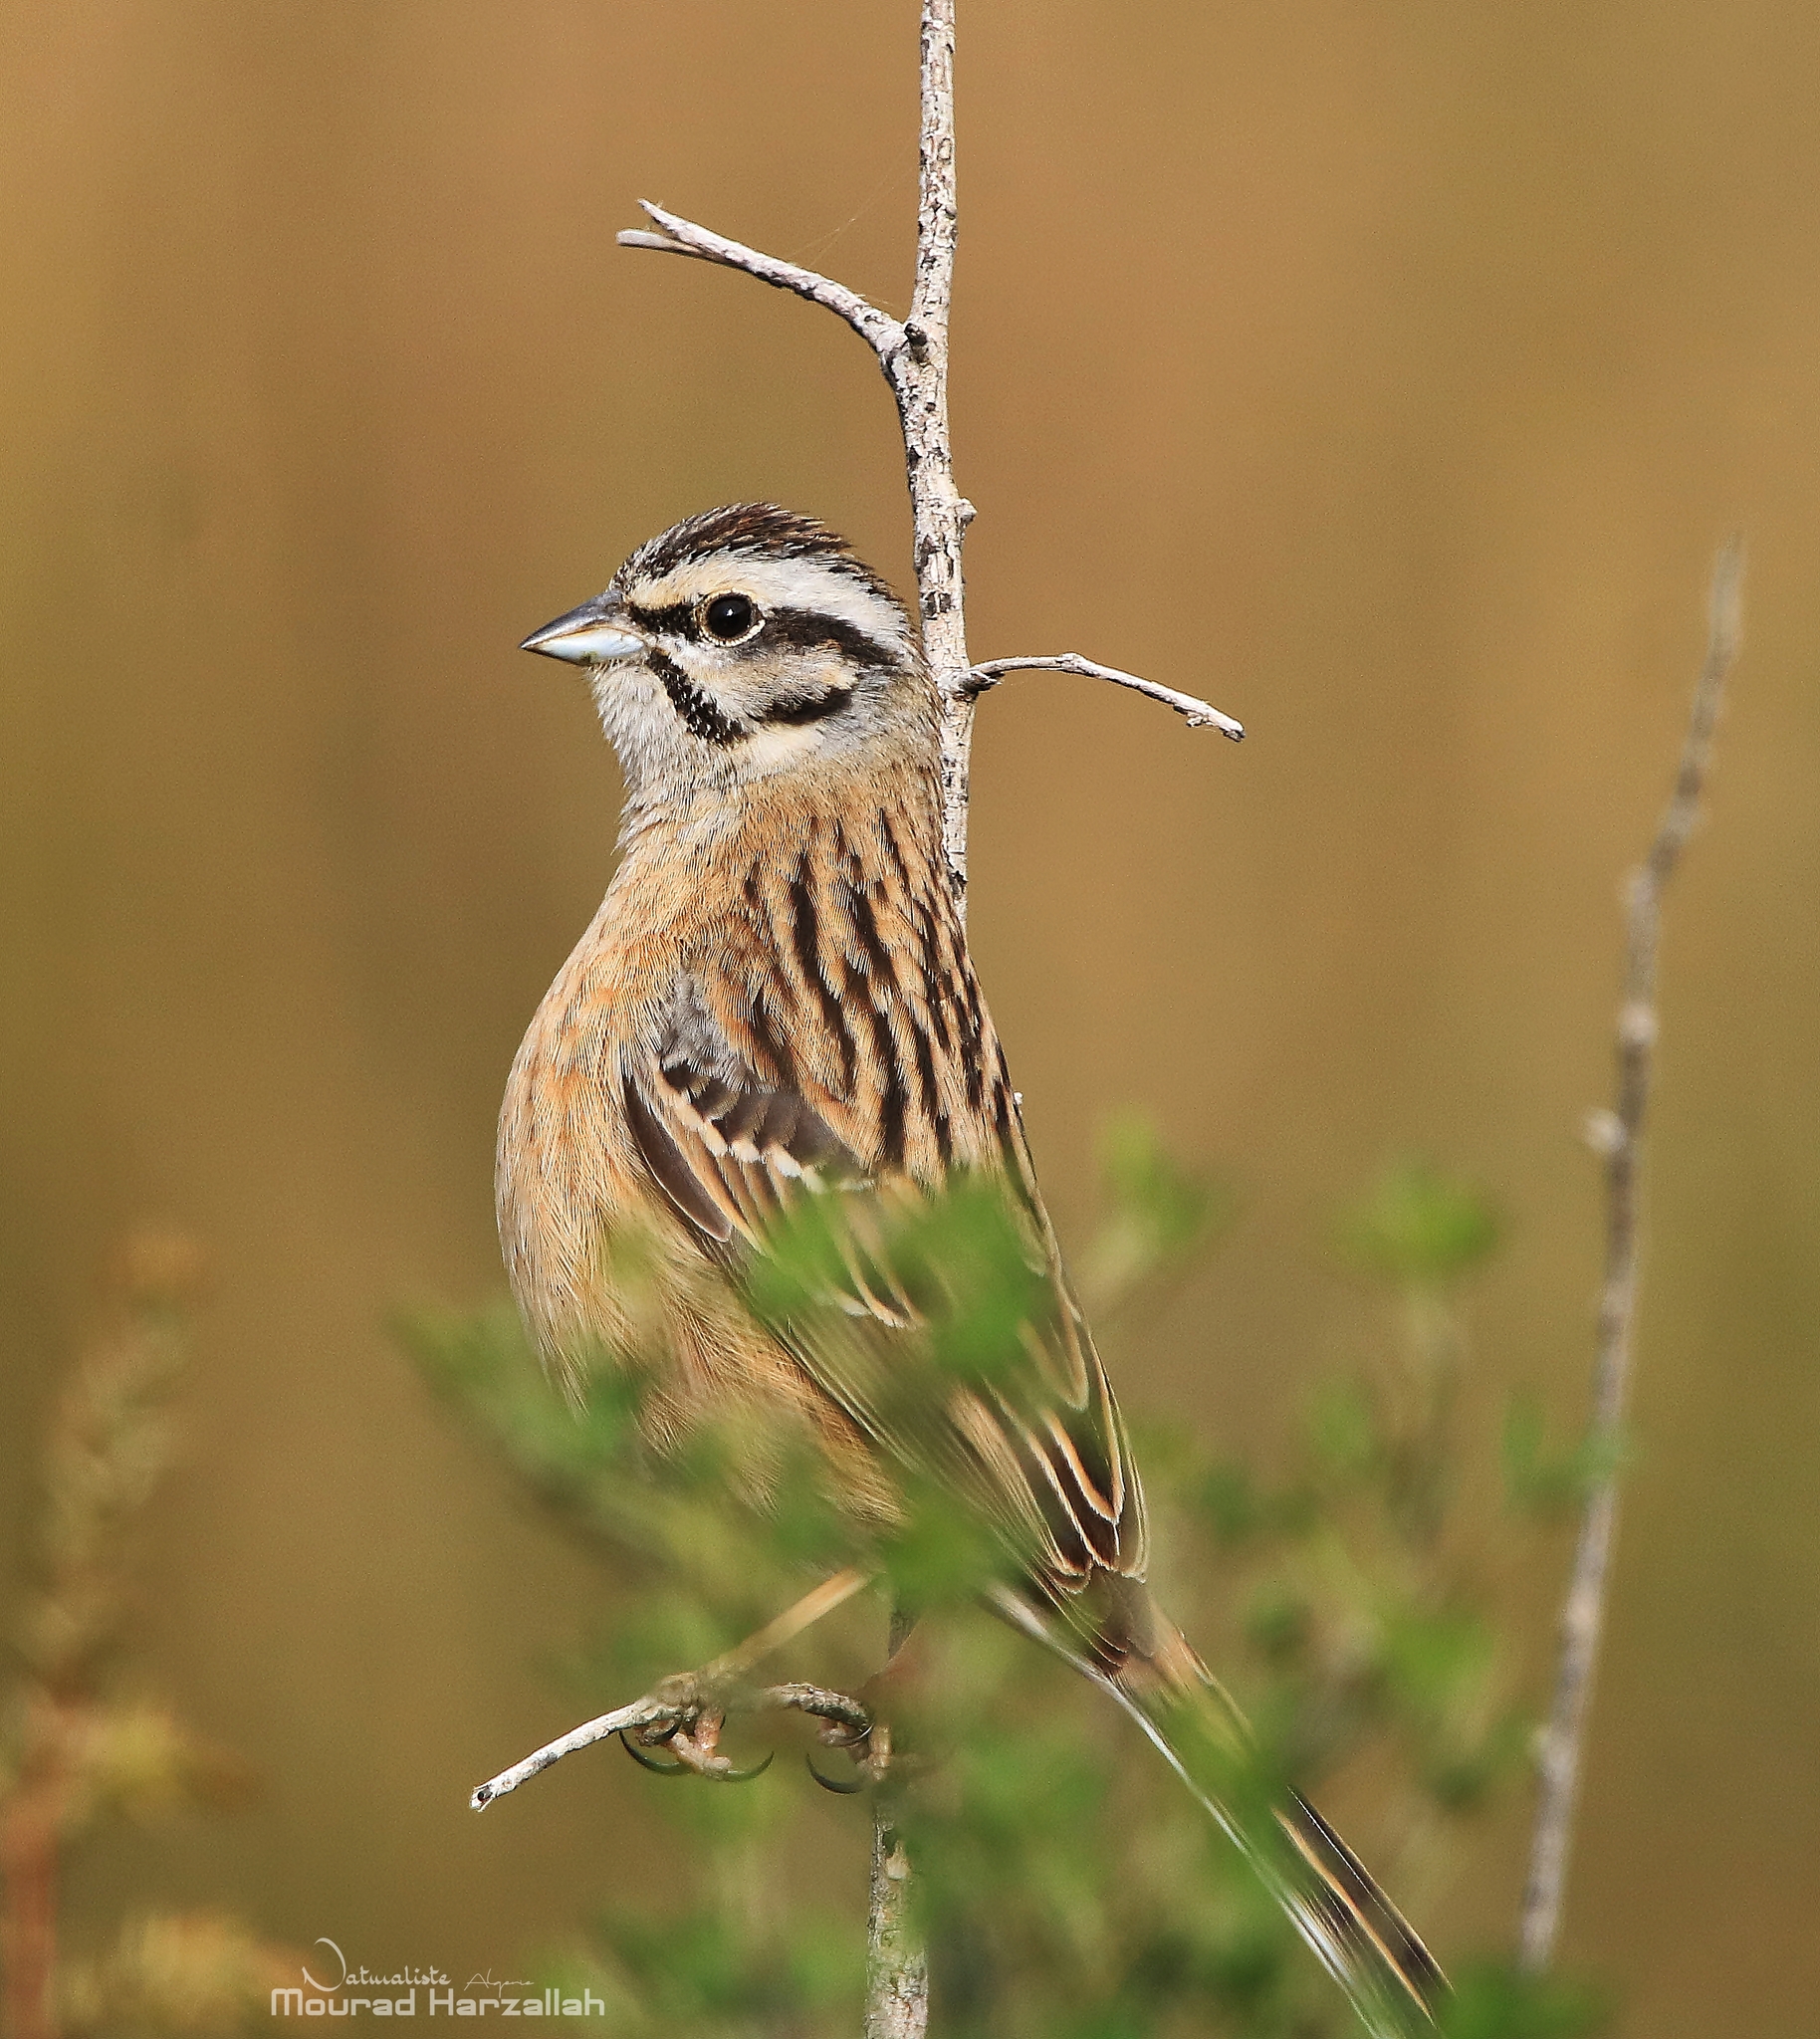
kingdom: Animalia
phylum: Chordata
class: Aves
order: Passeriformes
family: Emberizidae
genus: Emberiza
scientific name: Emberiza cia
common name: Rock bunting
